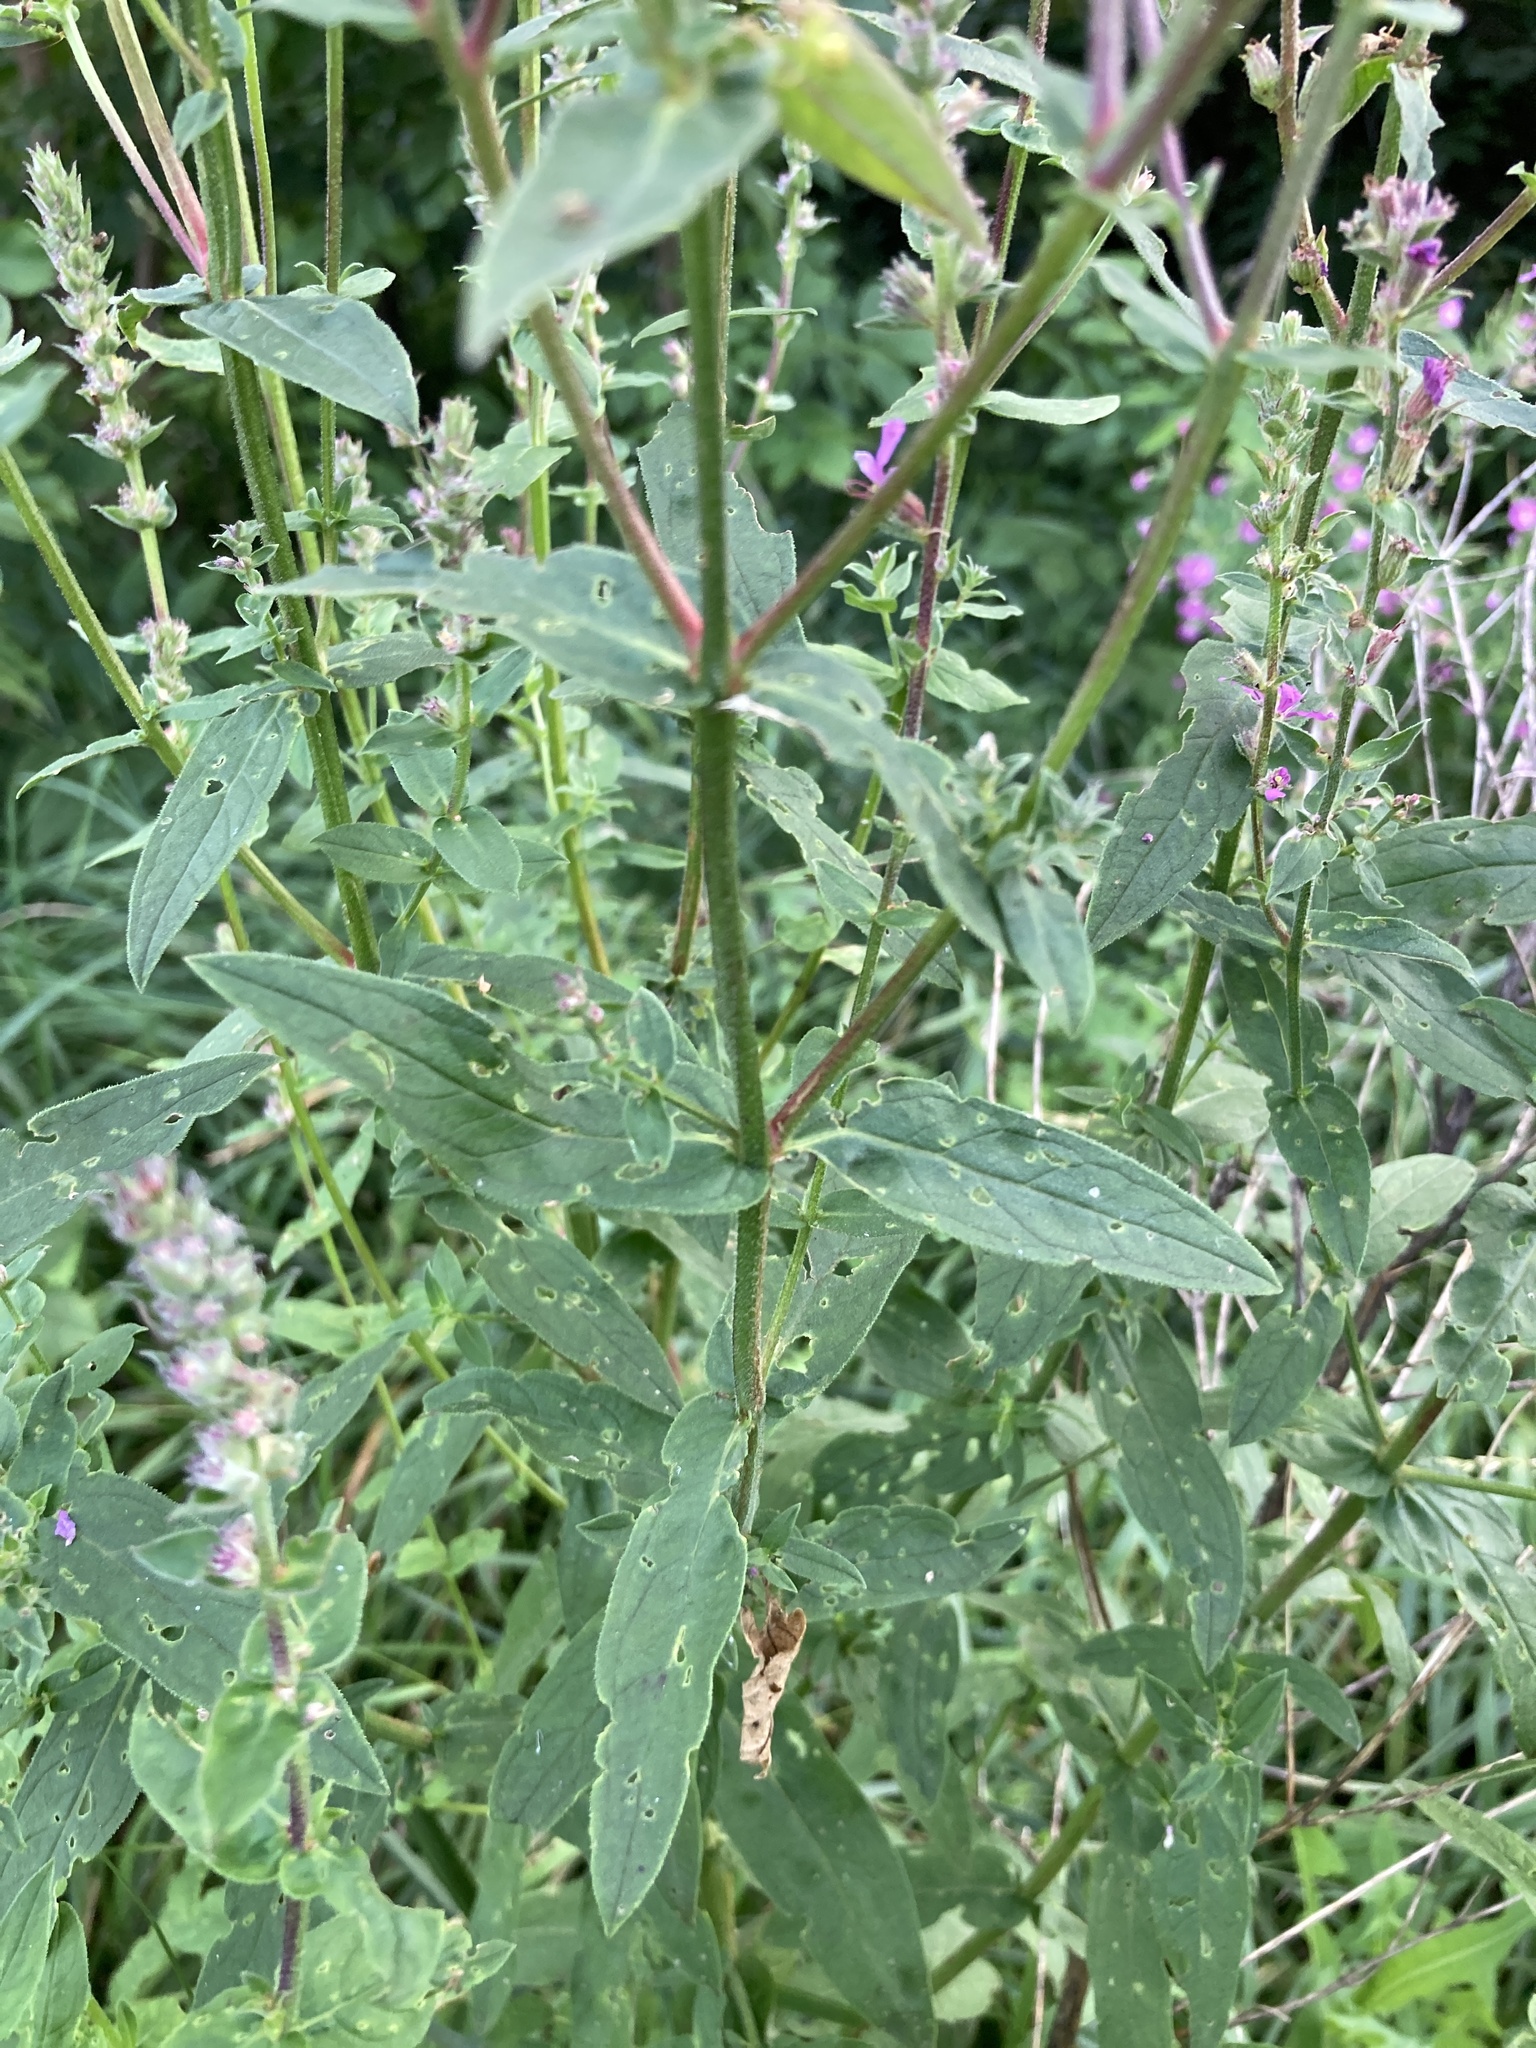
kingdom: Plantae
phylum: Tracheophyta
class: Magnoliopsida
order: Myrtales
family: Lythraceae
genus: Lythrum
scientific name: Lythrum salicaria
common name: Purple loosestrife
